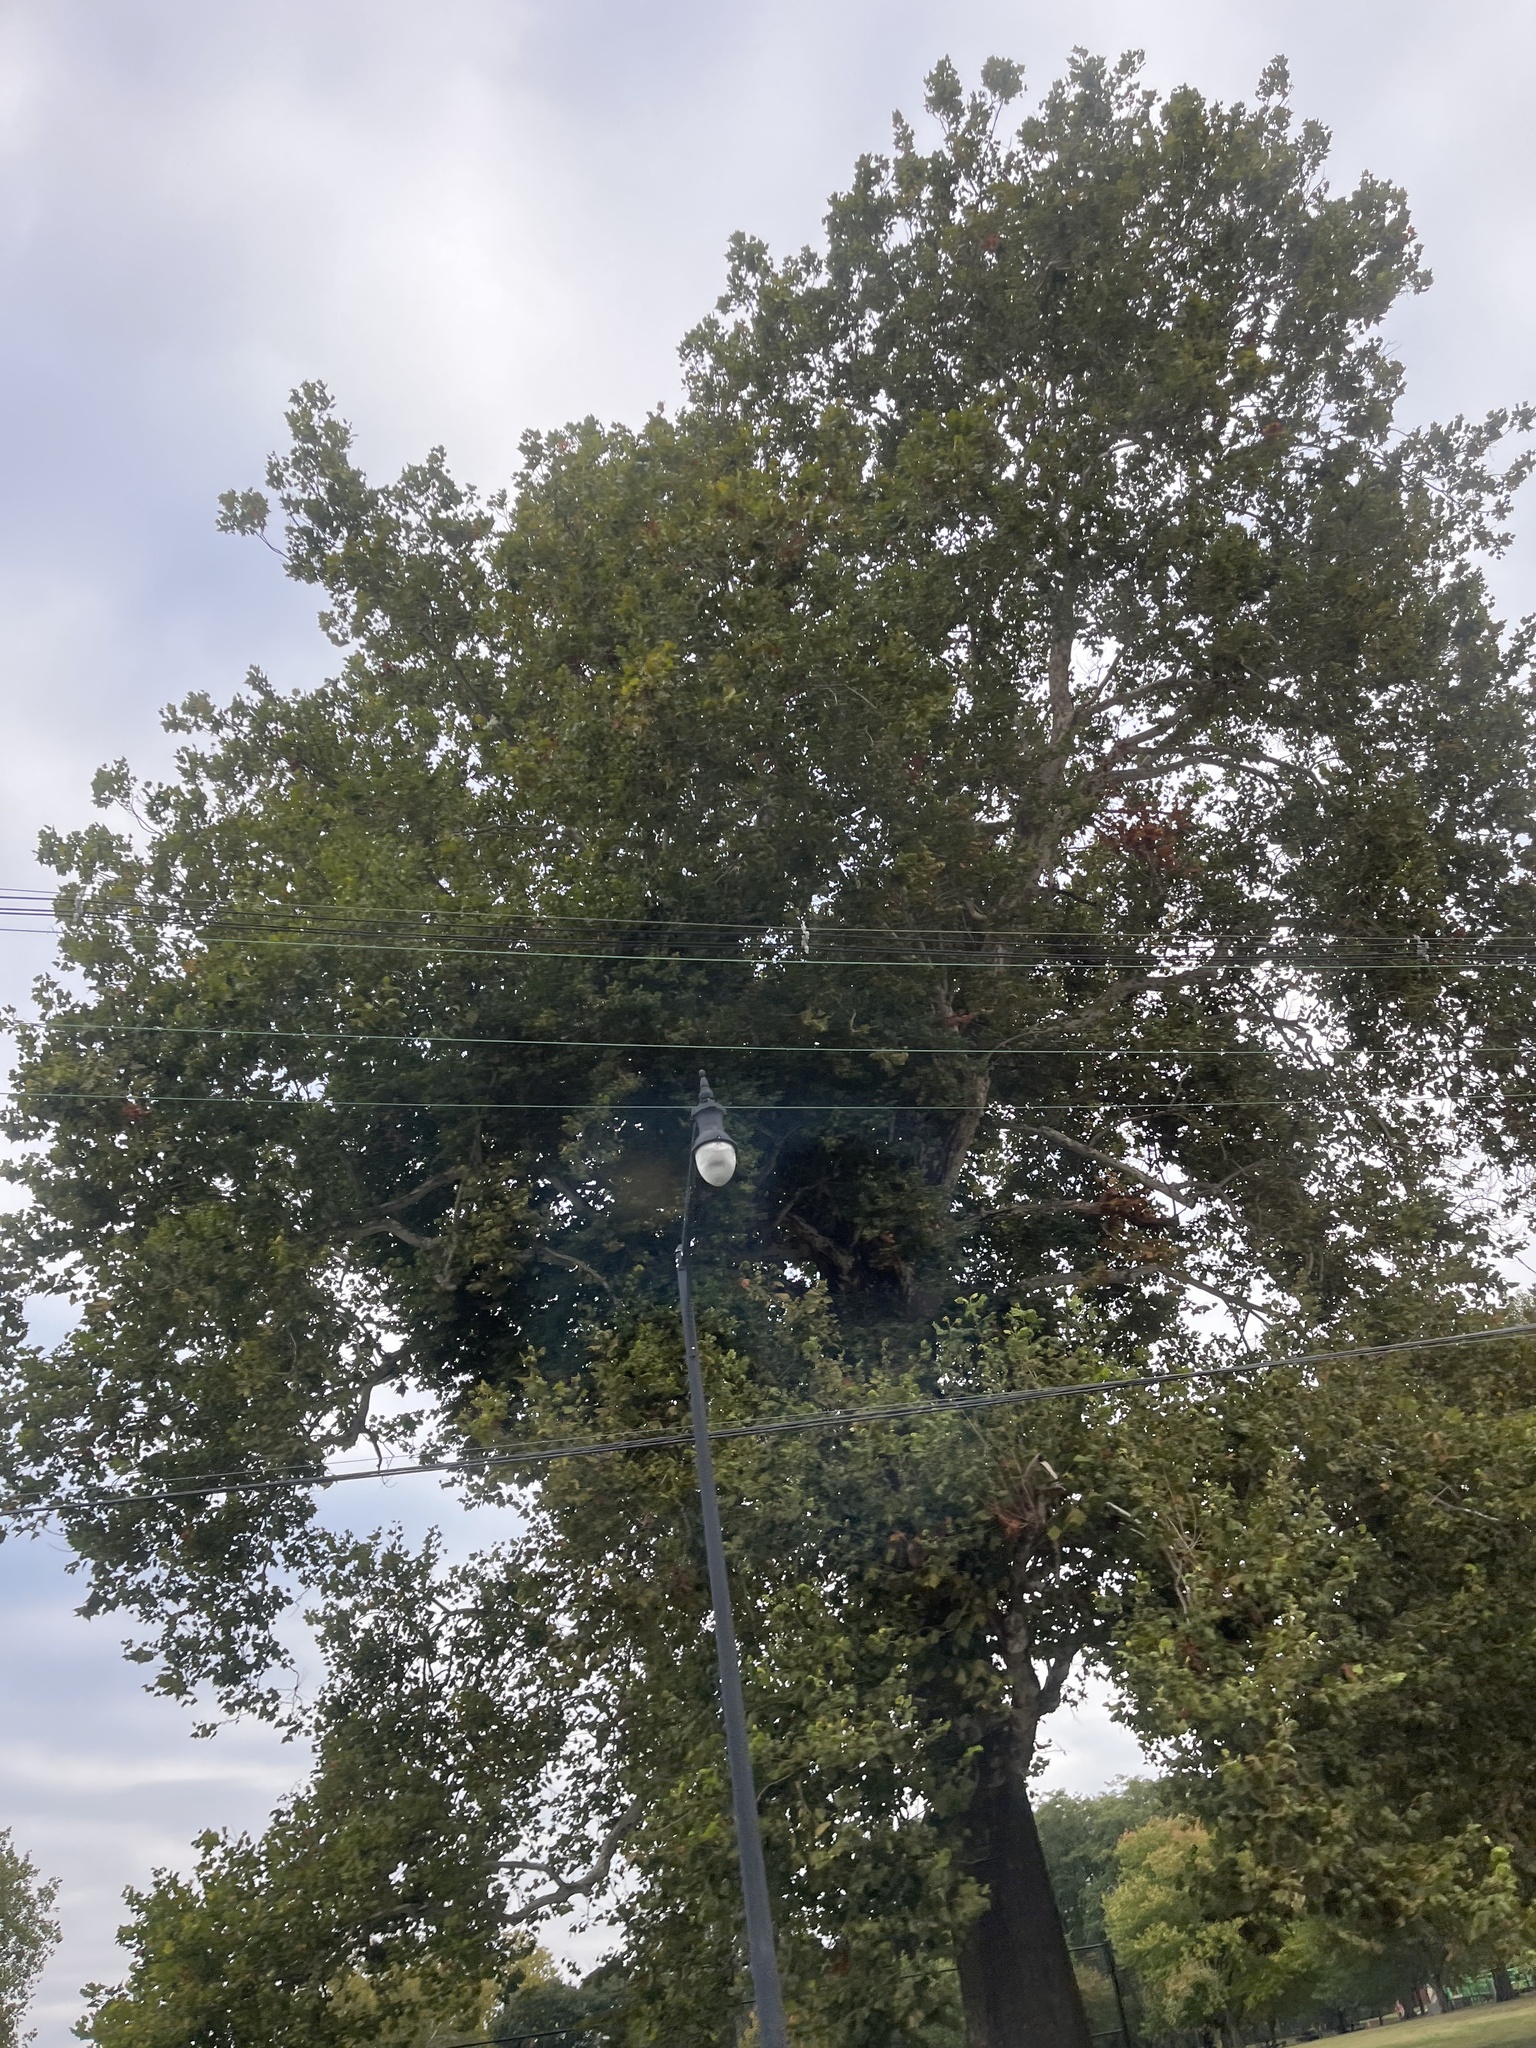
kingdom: Plantae
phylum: Tracheophyta
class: Magnoliopsida
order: Proteales
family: Platanaceae
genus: Platanus
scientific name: Platanus occidentalis
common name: American sycamore
